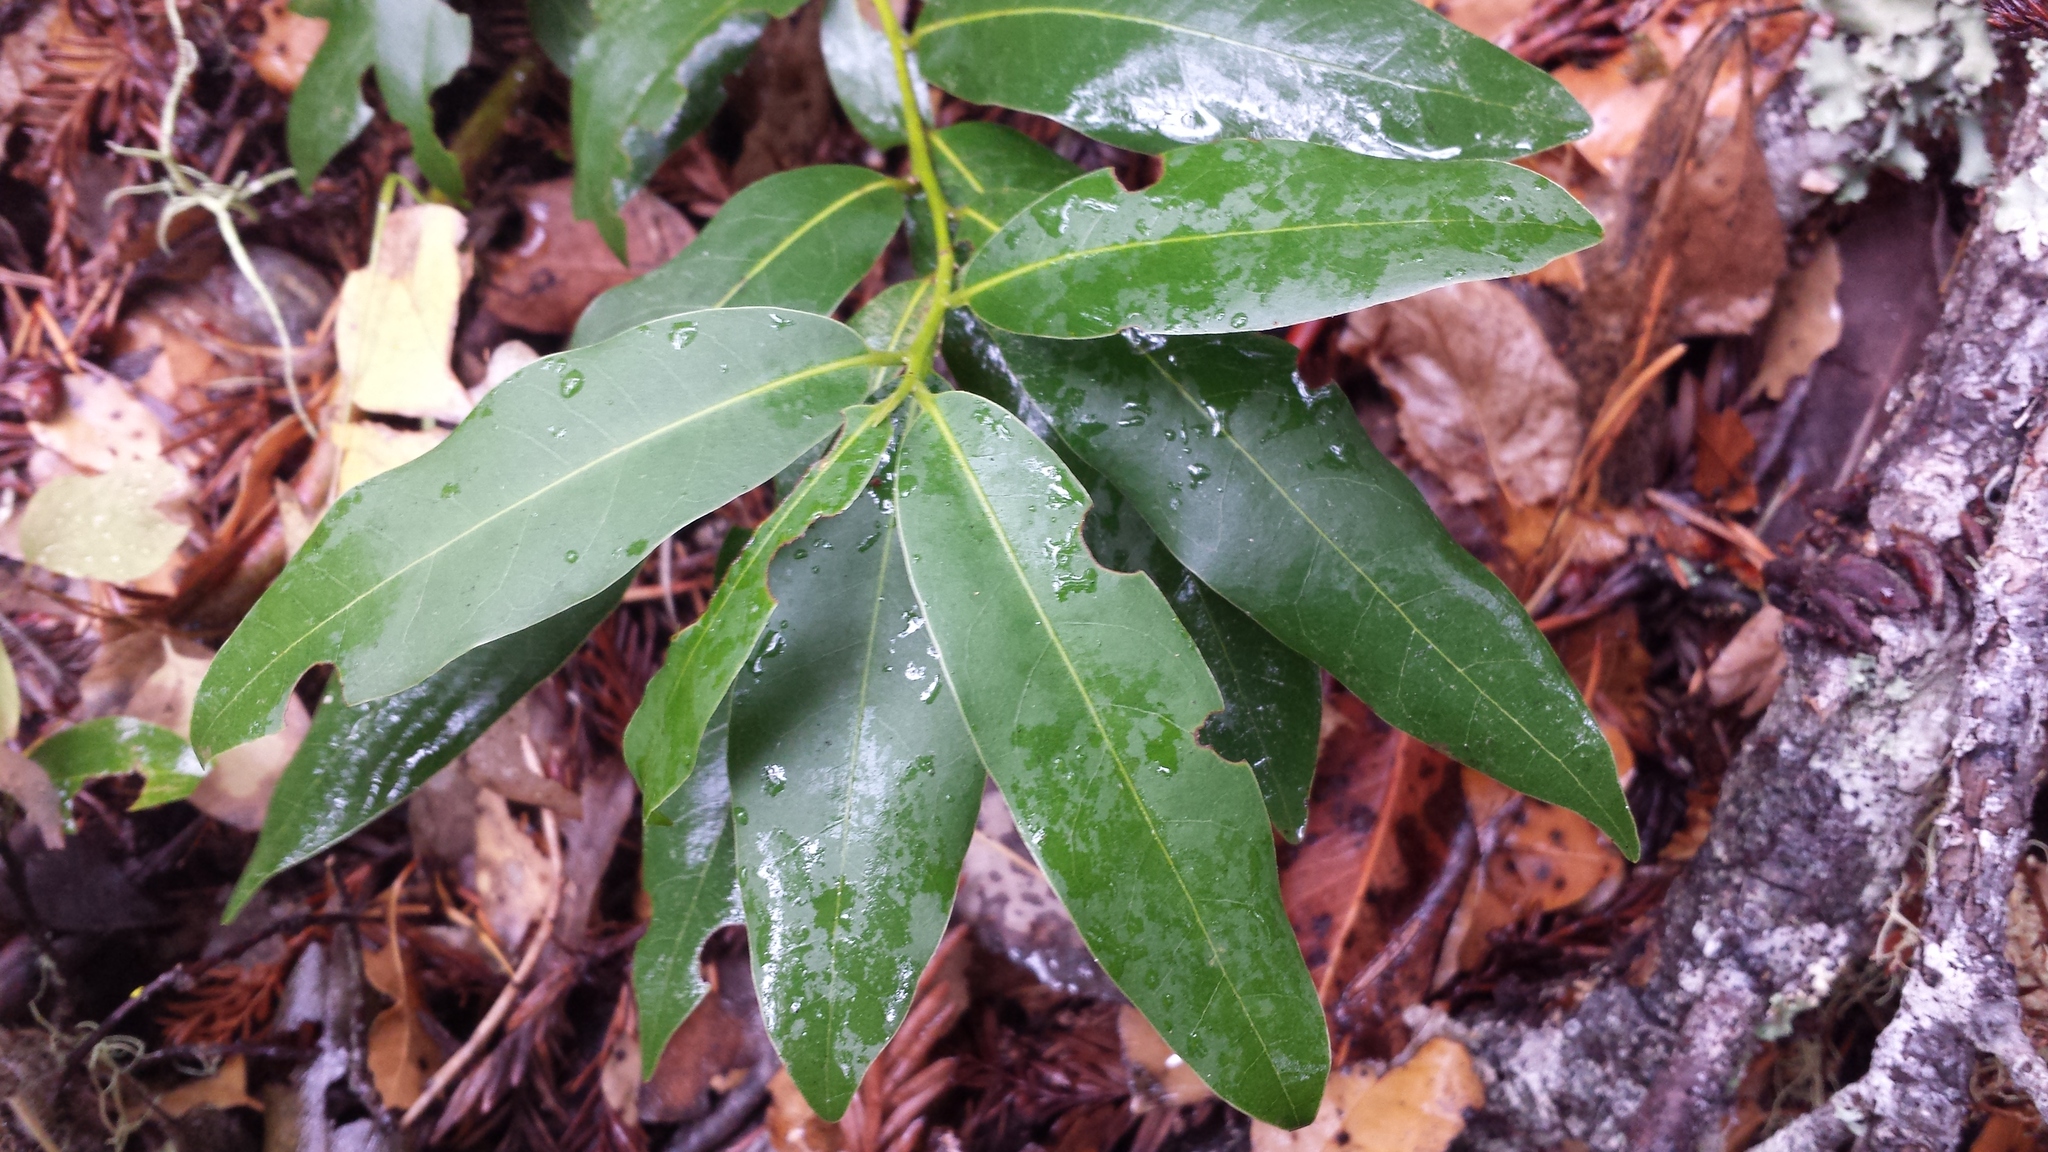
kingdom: Plantae
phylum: Tracheophyta
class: Magnoliopsida
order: Laurales
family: Lauraceae
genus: Umbellularia
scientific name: Umbellularia californica
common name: California bay
